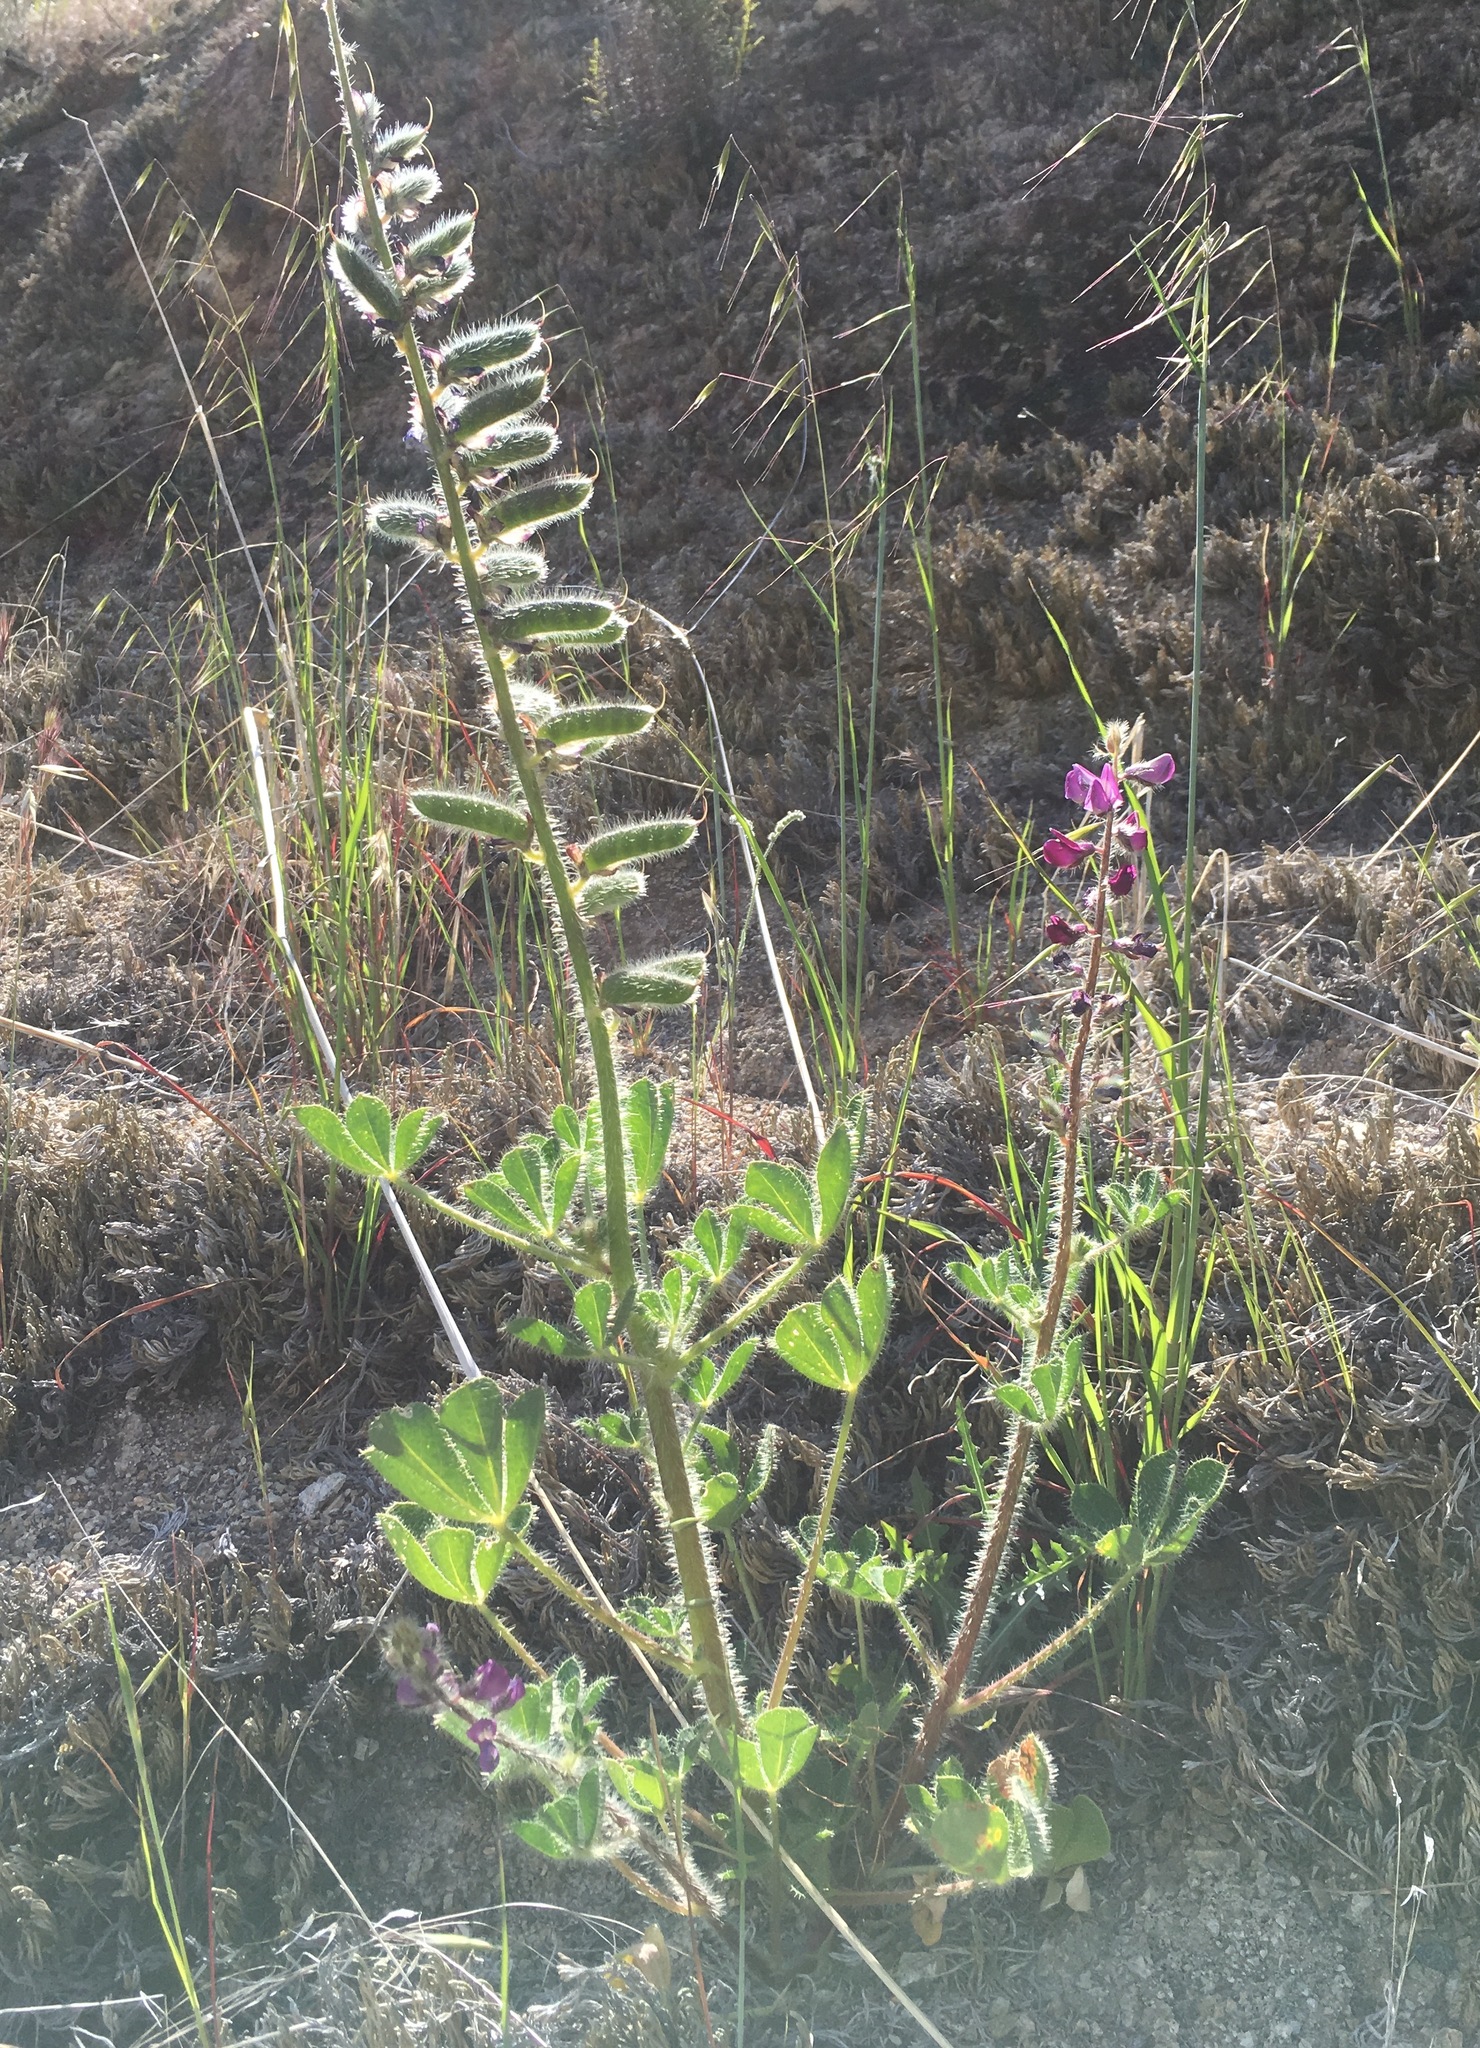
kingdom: Plantae
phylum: Tracheophyta
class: Magnoliopsida
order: Fabales
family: Fabaceae
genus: Lupinus
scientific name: Lupinus hirsutissimus
